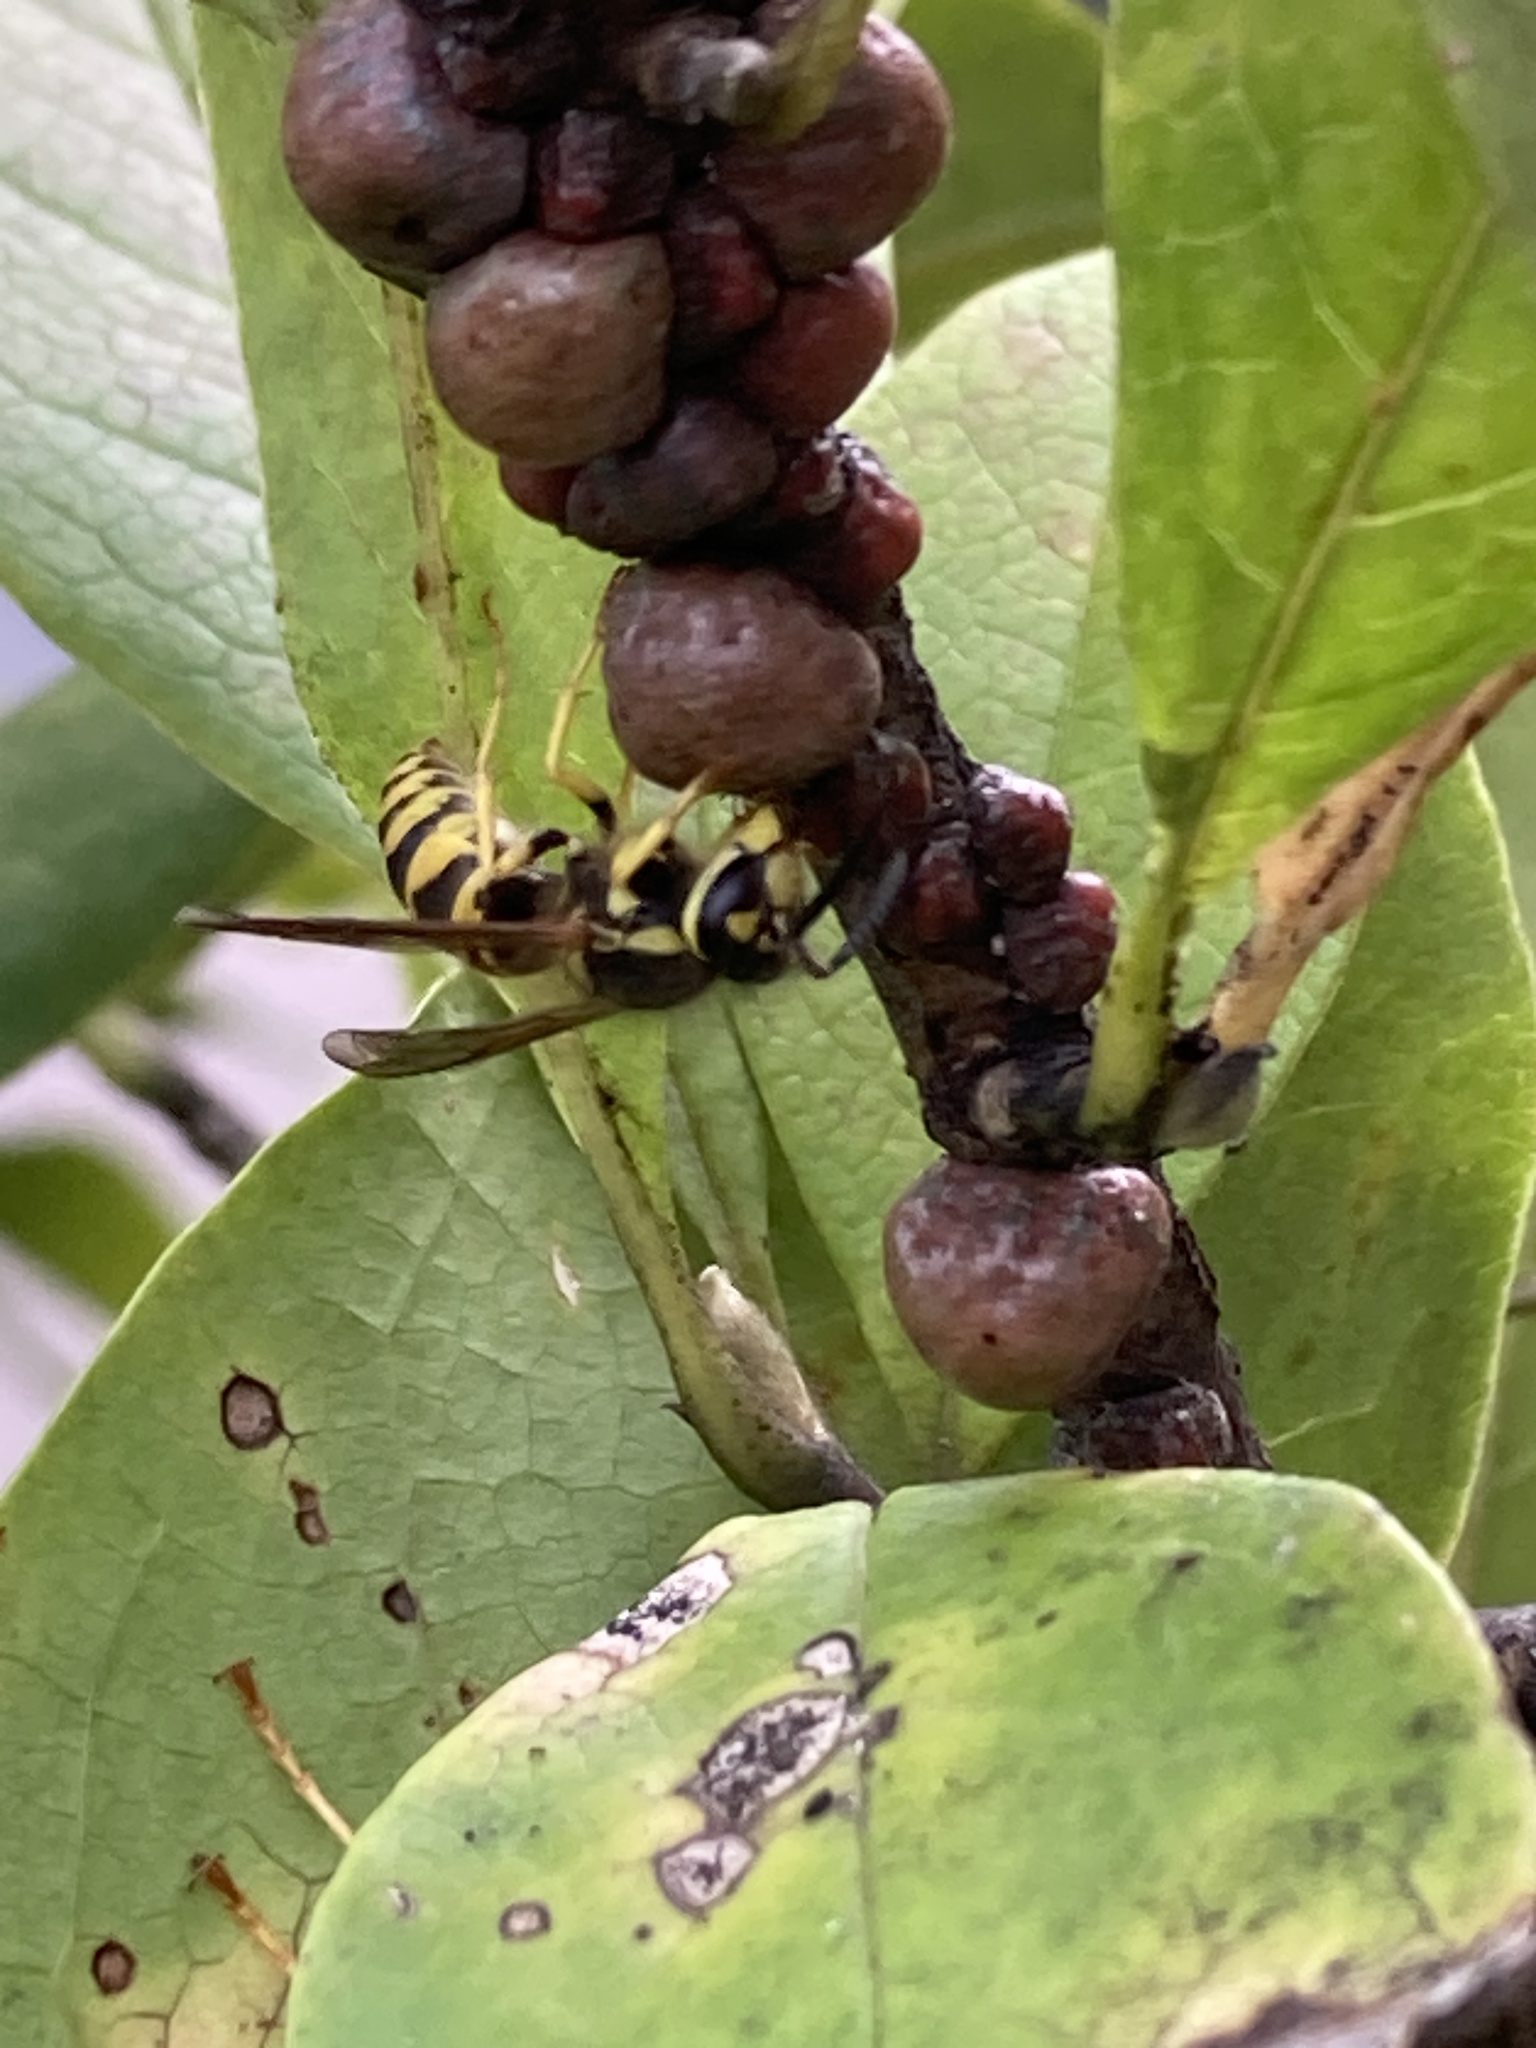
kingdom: Animalia
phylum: Arthropoda
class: Insecta
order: Hymenoptera
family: Vespidae
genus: Vespula
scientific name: Vespula maculifrons
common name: Eastern yellowjacket
